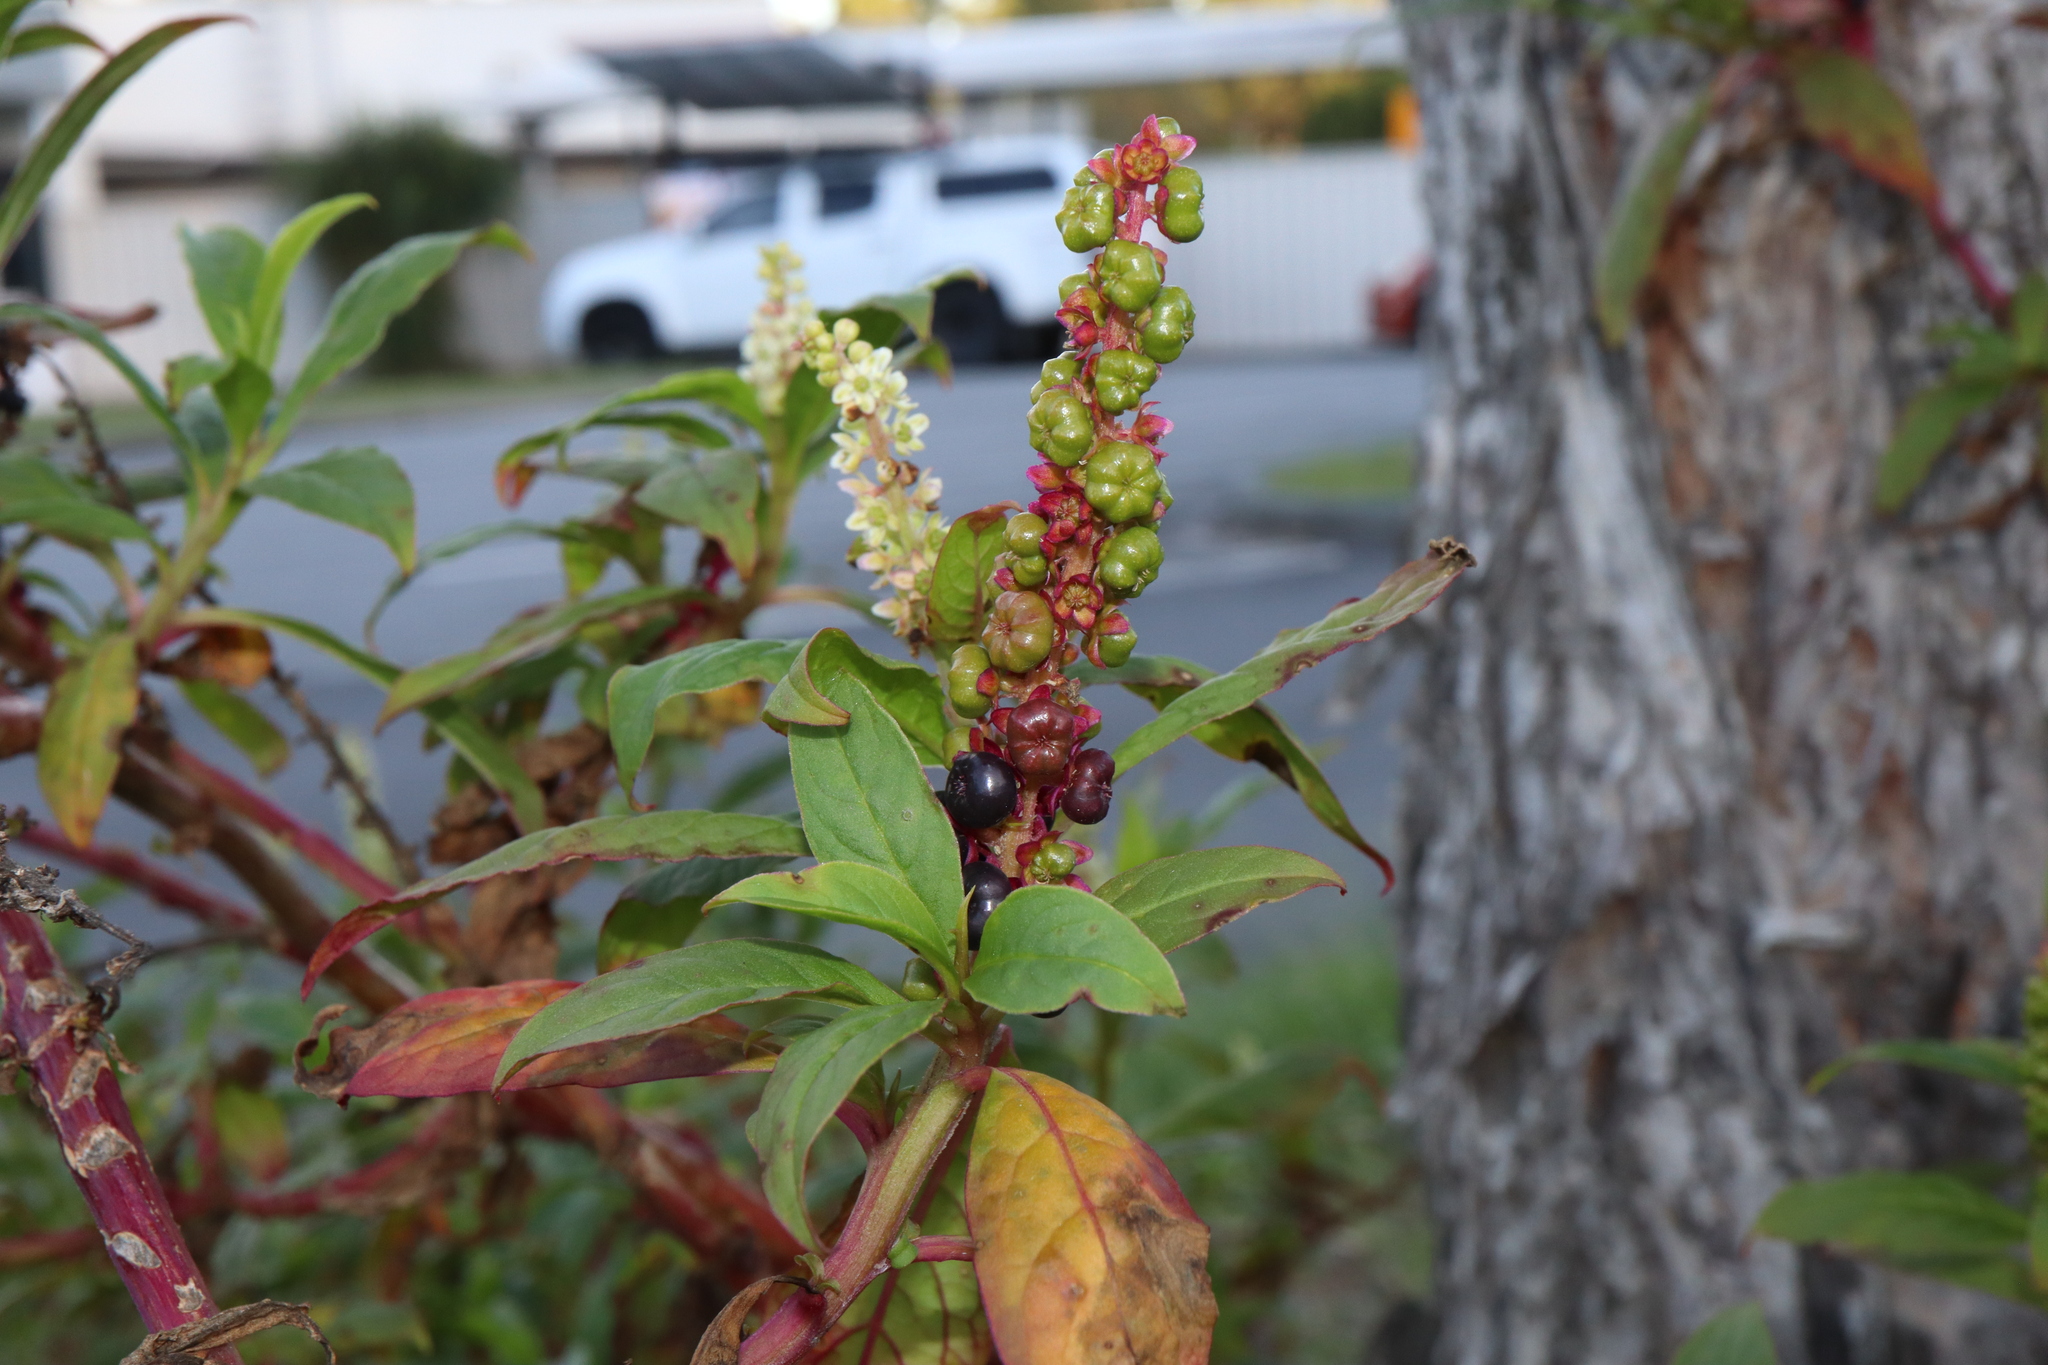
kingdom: Plantae
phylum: Tracheophyta
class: Magnoliopsida
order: Caryophyllales
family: Phytolaccaceae
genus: Phytolacca
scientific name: Phytolacca icosandra
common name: Button pokeweed
